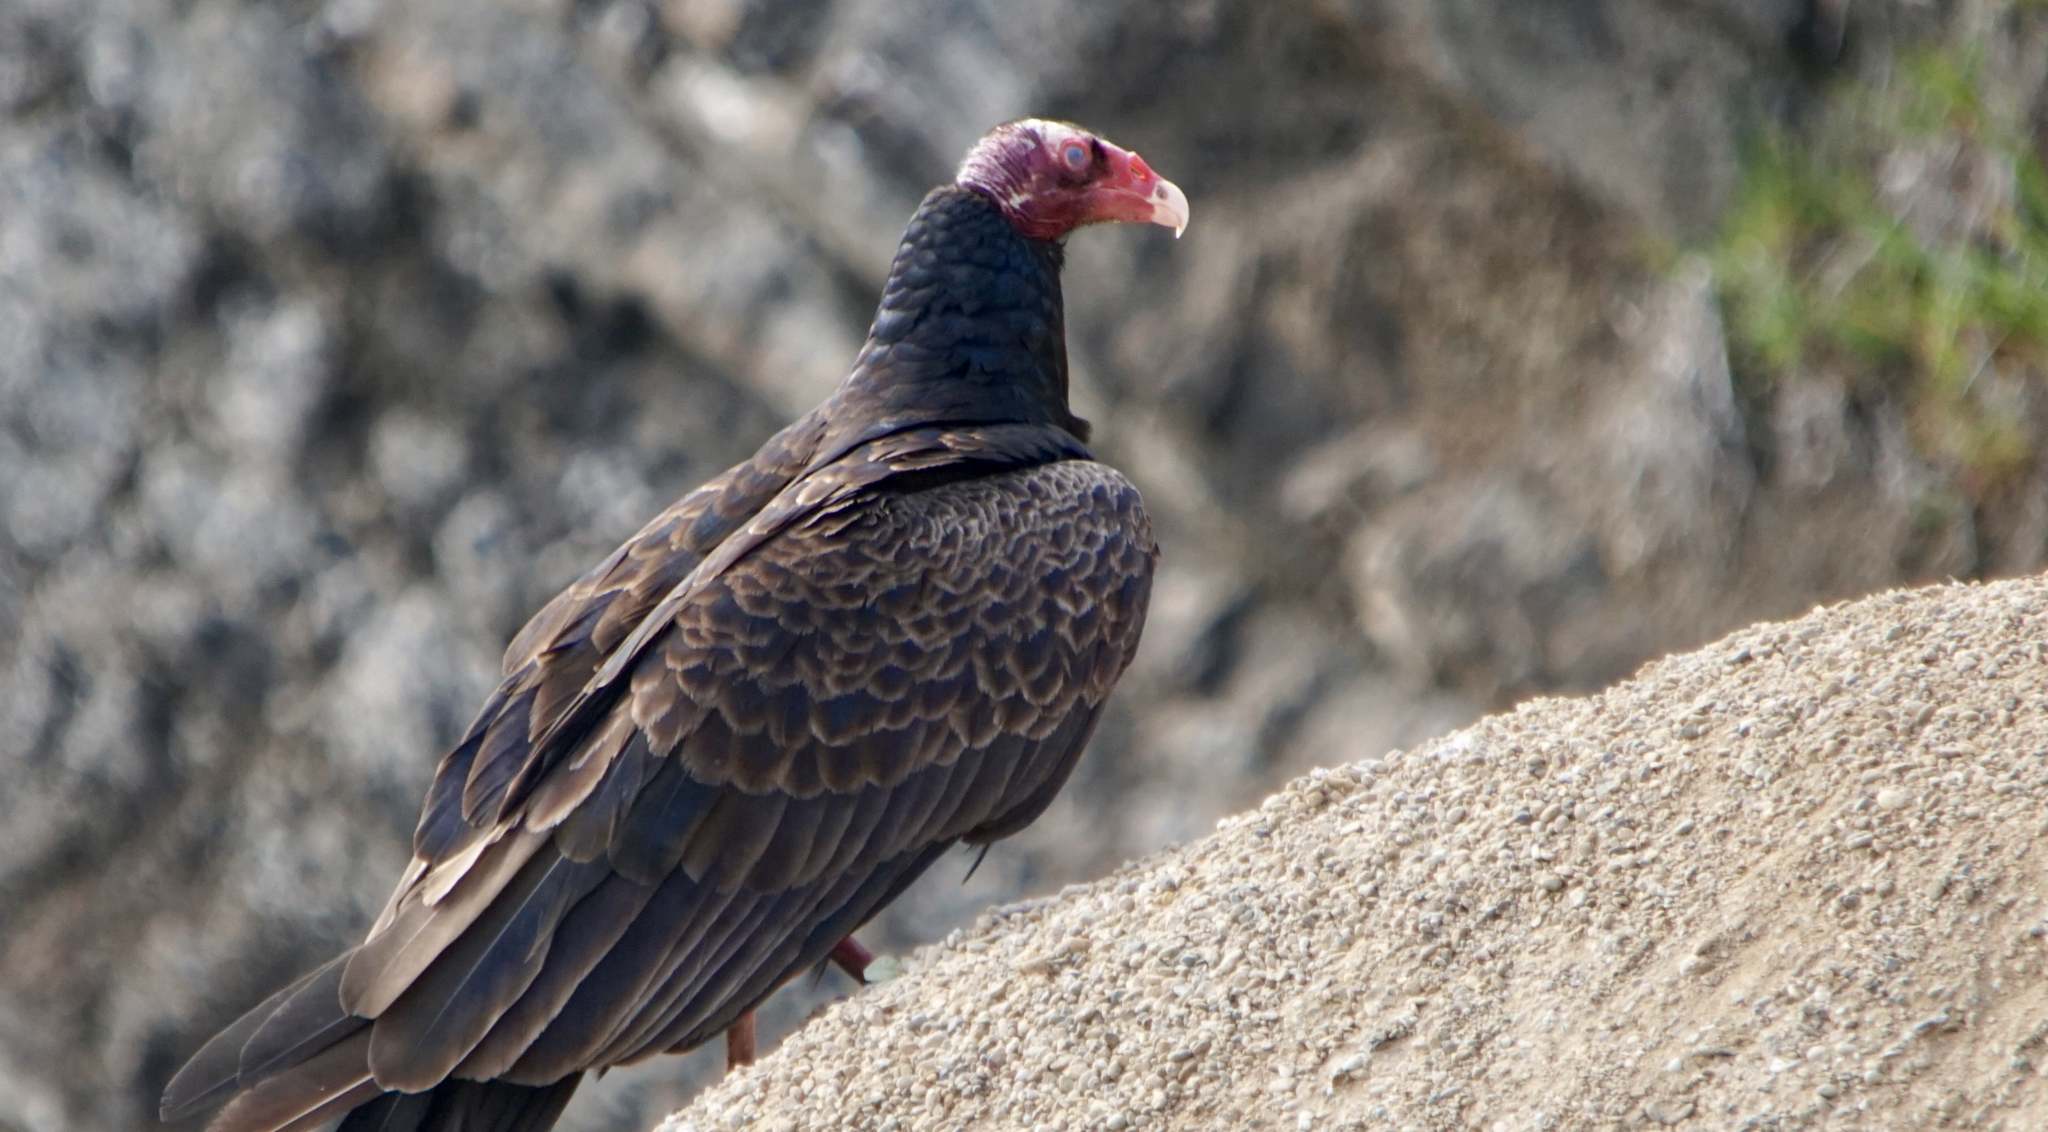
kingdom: Animalia
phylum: Chordata
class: Aves
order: Accipitriformes
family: Cathartidae
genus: Cathartes
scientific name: Cathartes aura
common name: Turkey vulture
